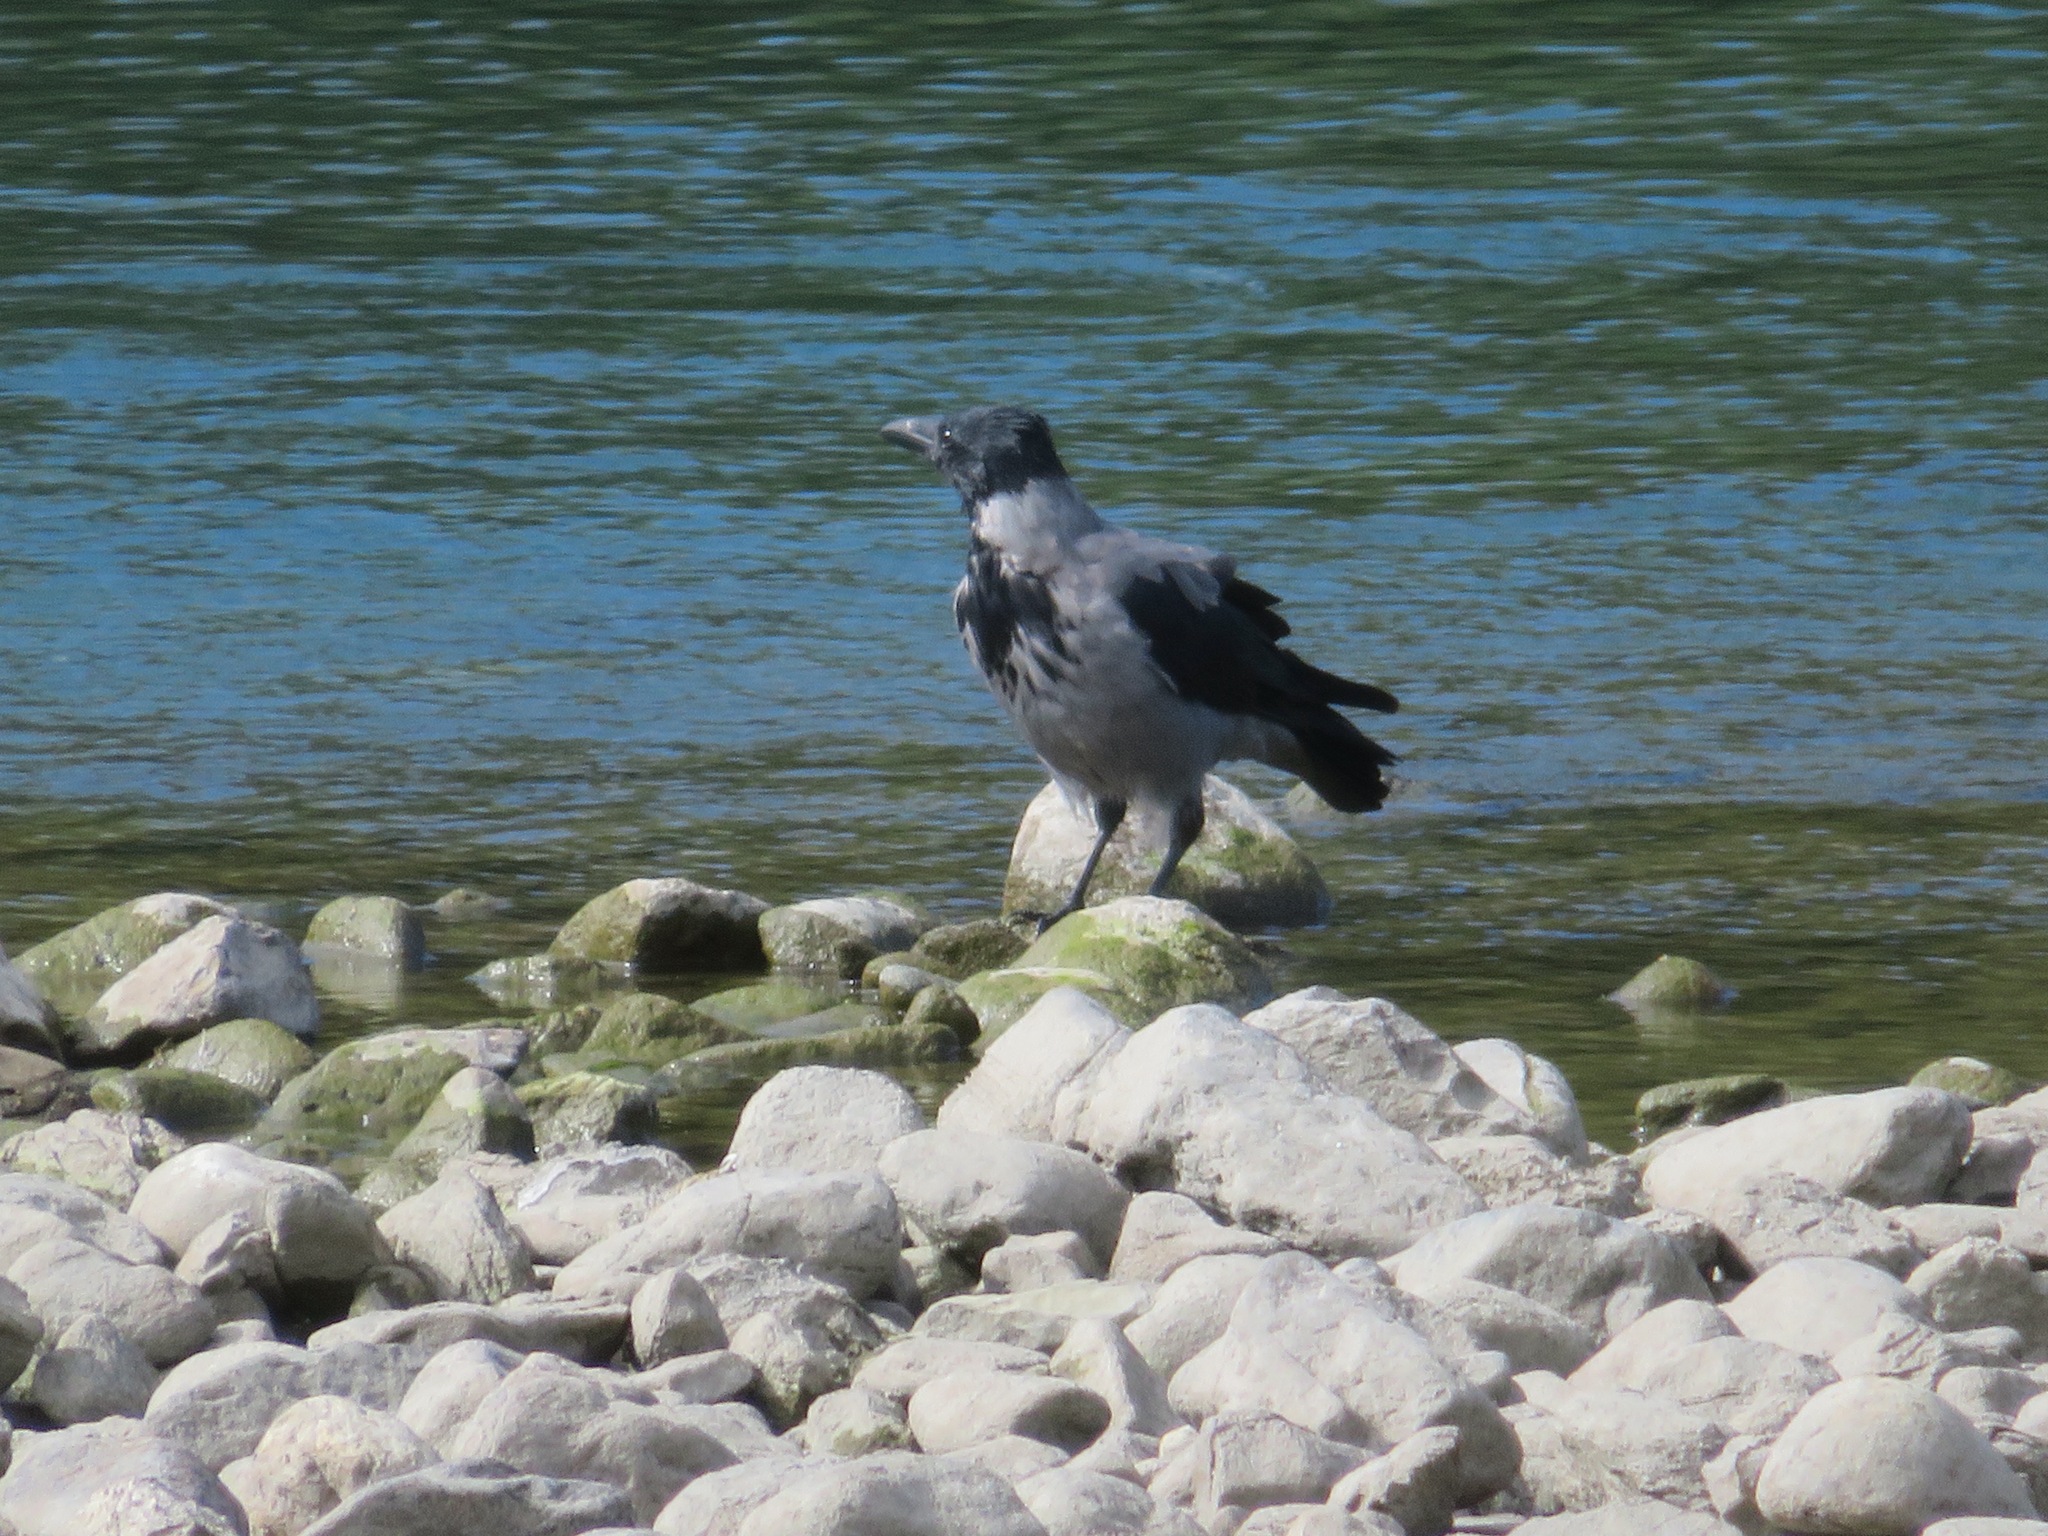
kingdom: Animalia
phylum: Chordata
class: Aves
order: Passeriformes
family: Corvidae
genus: Corvus
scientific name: Corvus cornix
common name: Hooded crow
